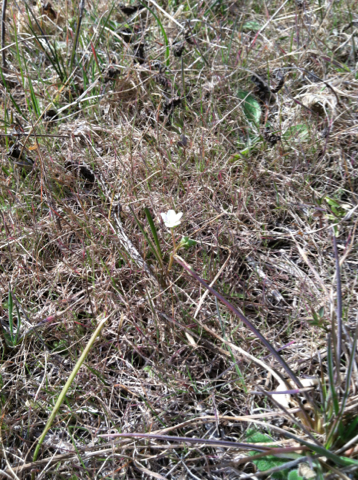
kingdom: Plantae
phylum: Tracheophyta
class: Magnoliopsida
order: Caryophyllales
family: Montiaceae
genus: Claytonia
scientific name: Claytonia virginica
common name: Virginia springbeauty
